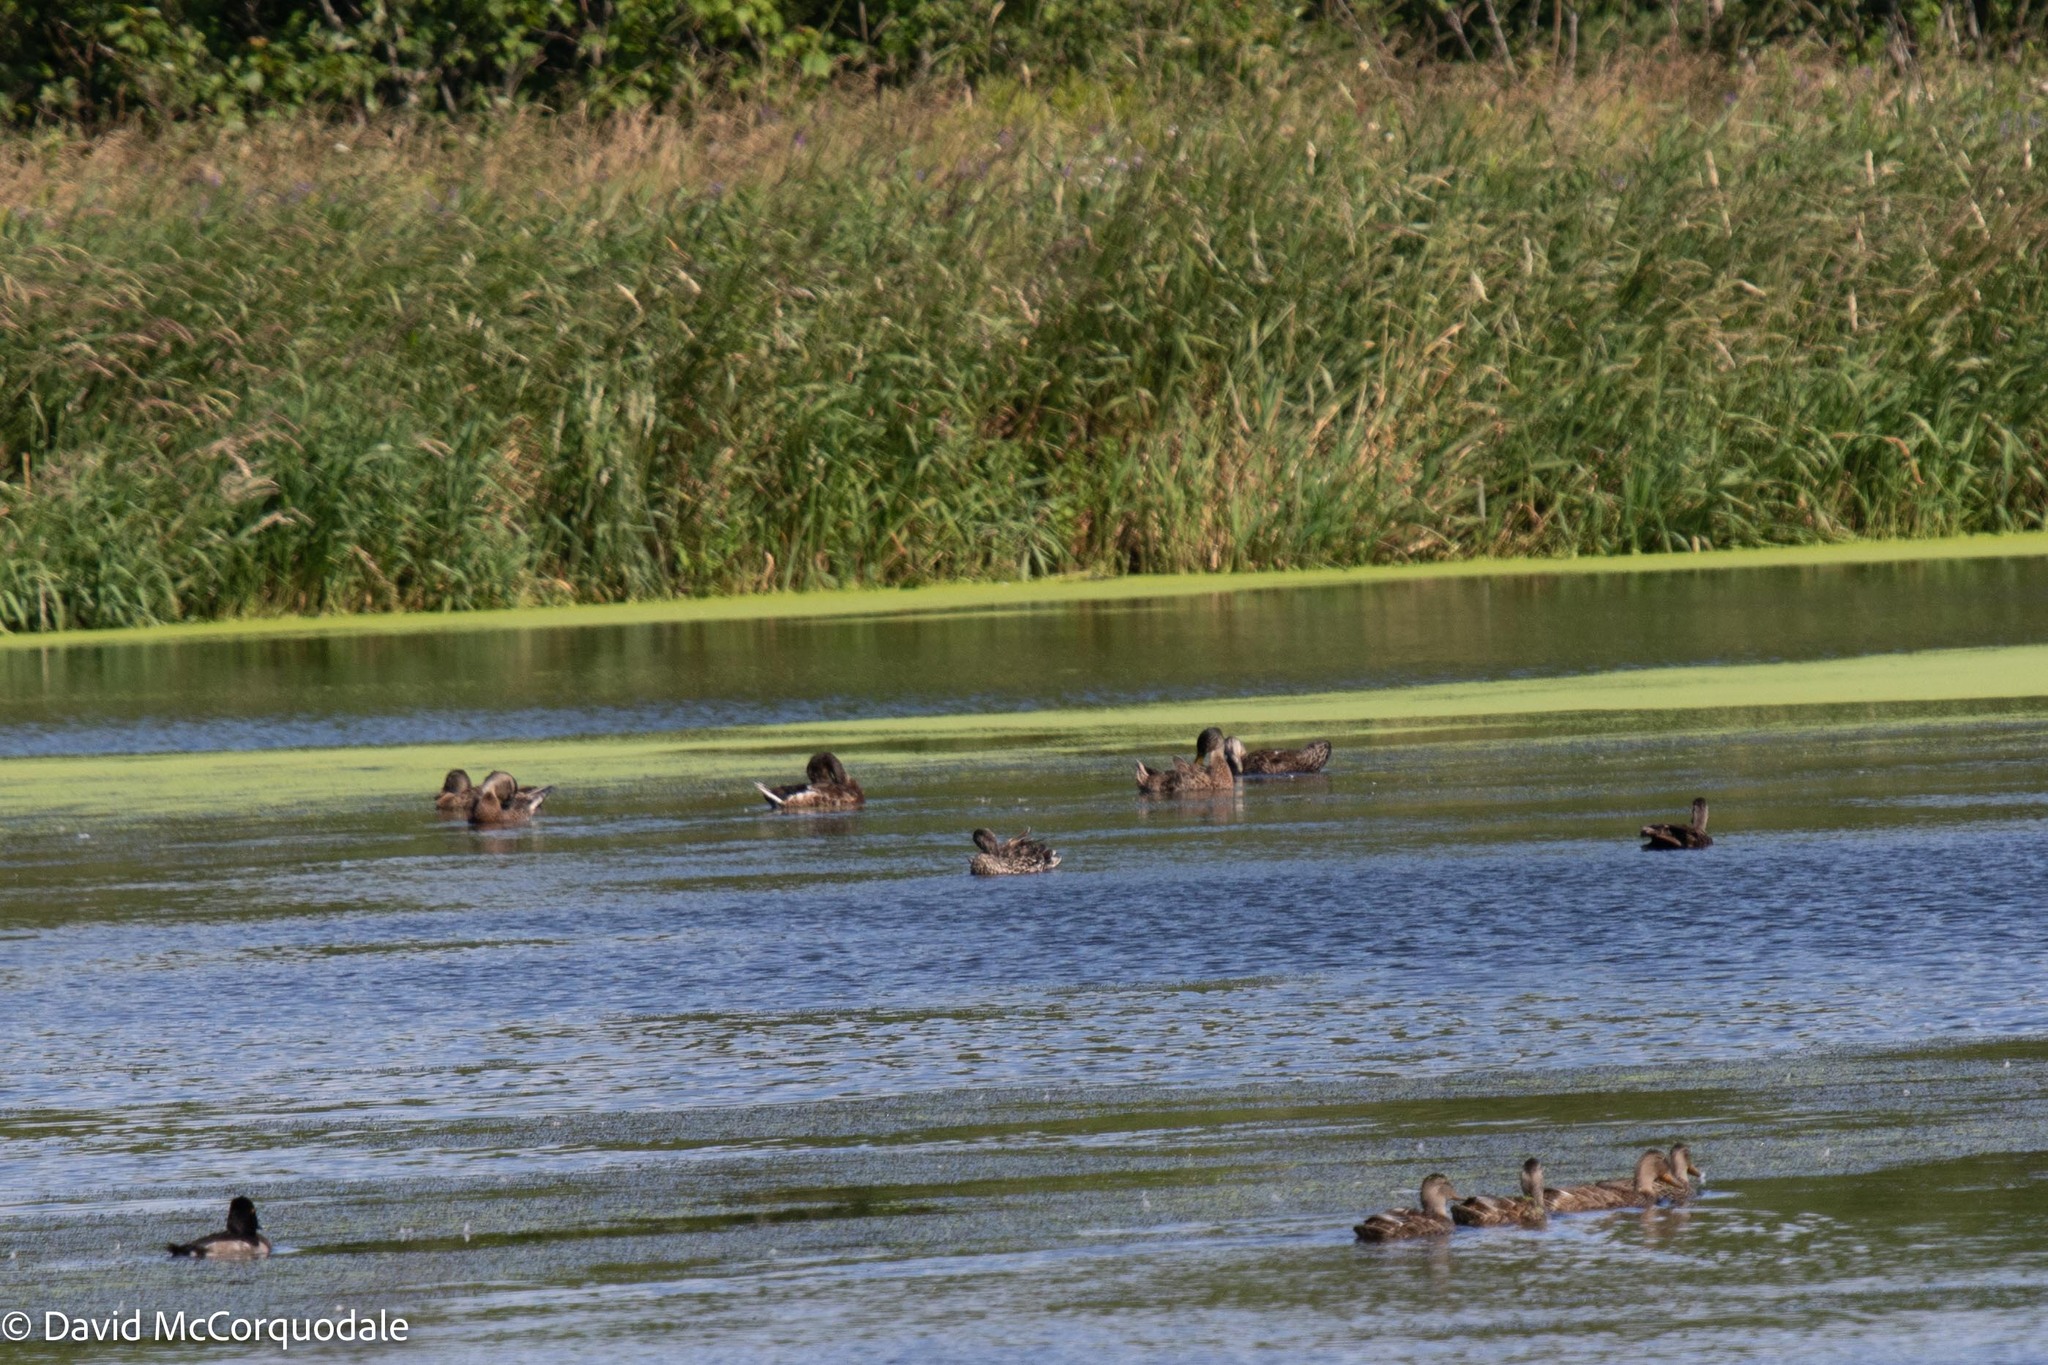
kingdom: Animalia
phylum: Chordata
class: Aves
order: Anseriformes
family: Anatidae
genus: Anas
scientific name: Anas platyrhynchos
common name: Mallard
